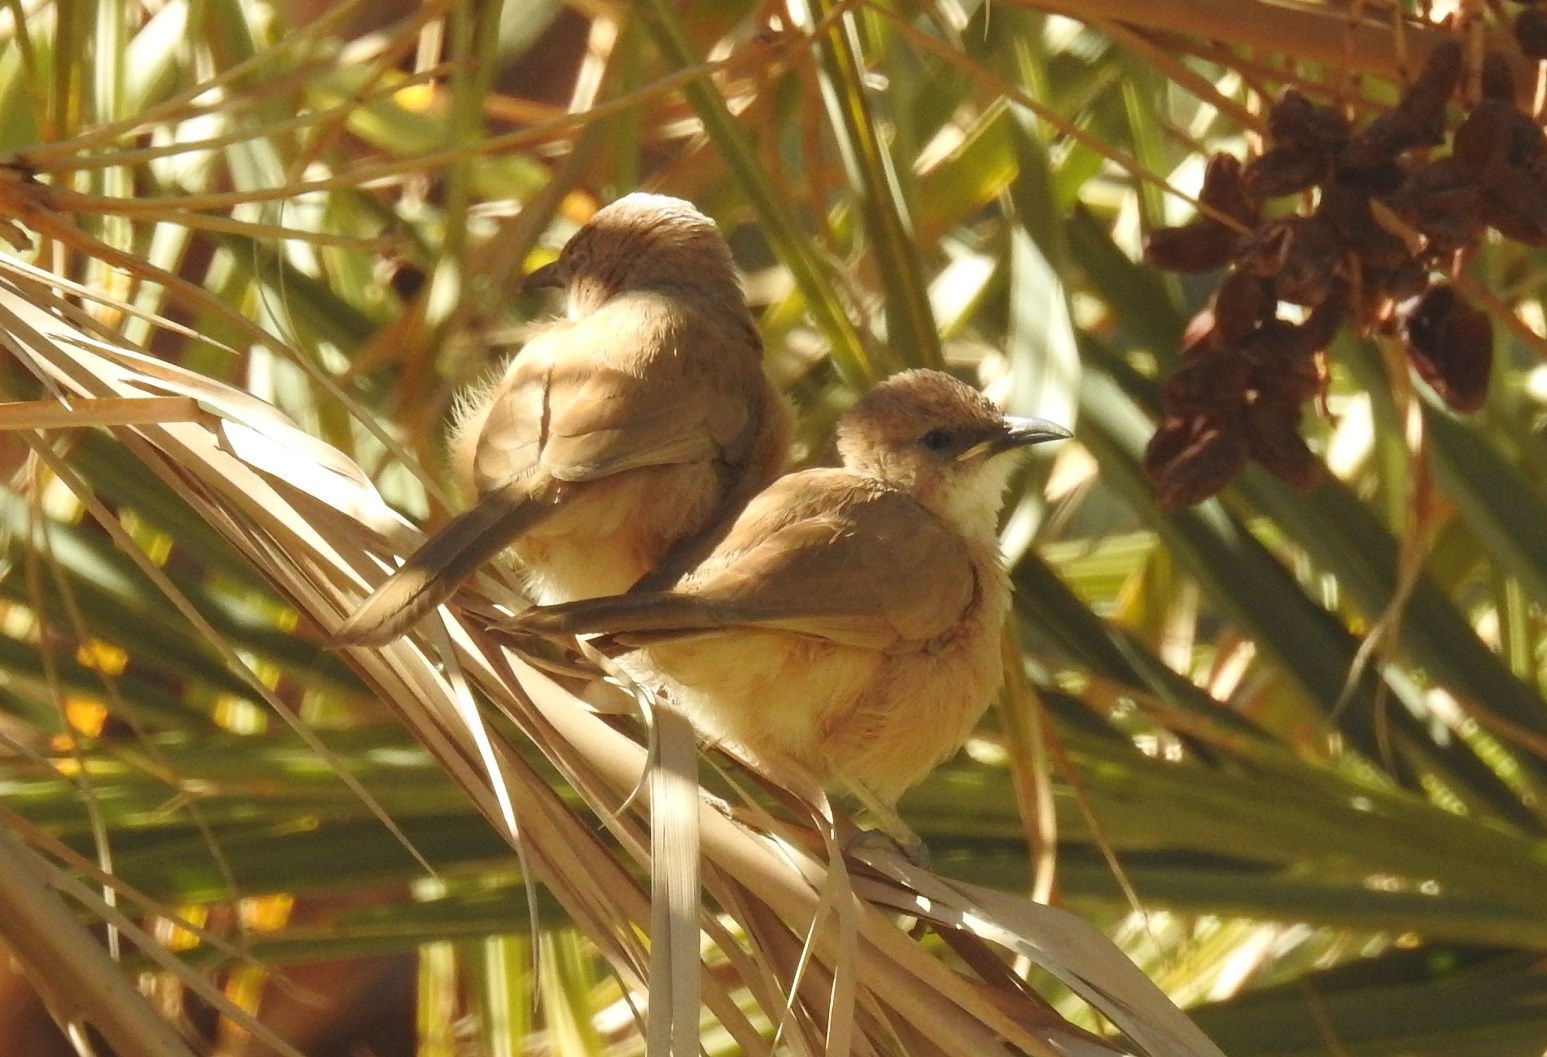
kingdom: Animalia
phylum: Chordata
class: Aves
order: Passeriformes
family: Leiothrichidae
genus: Turdoides
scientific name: Turdoides fulva
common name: Fulvous babbler
